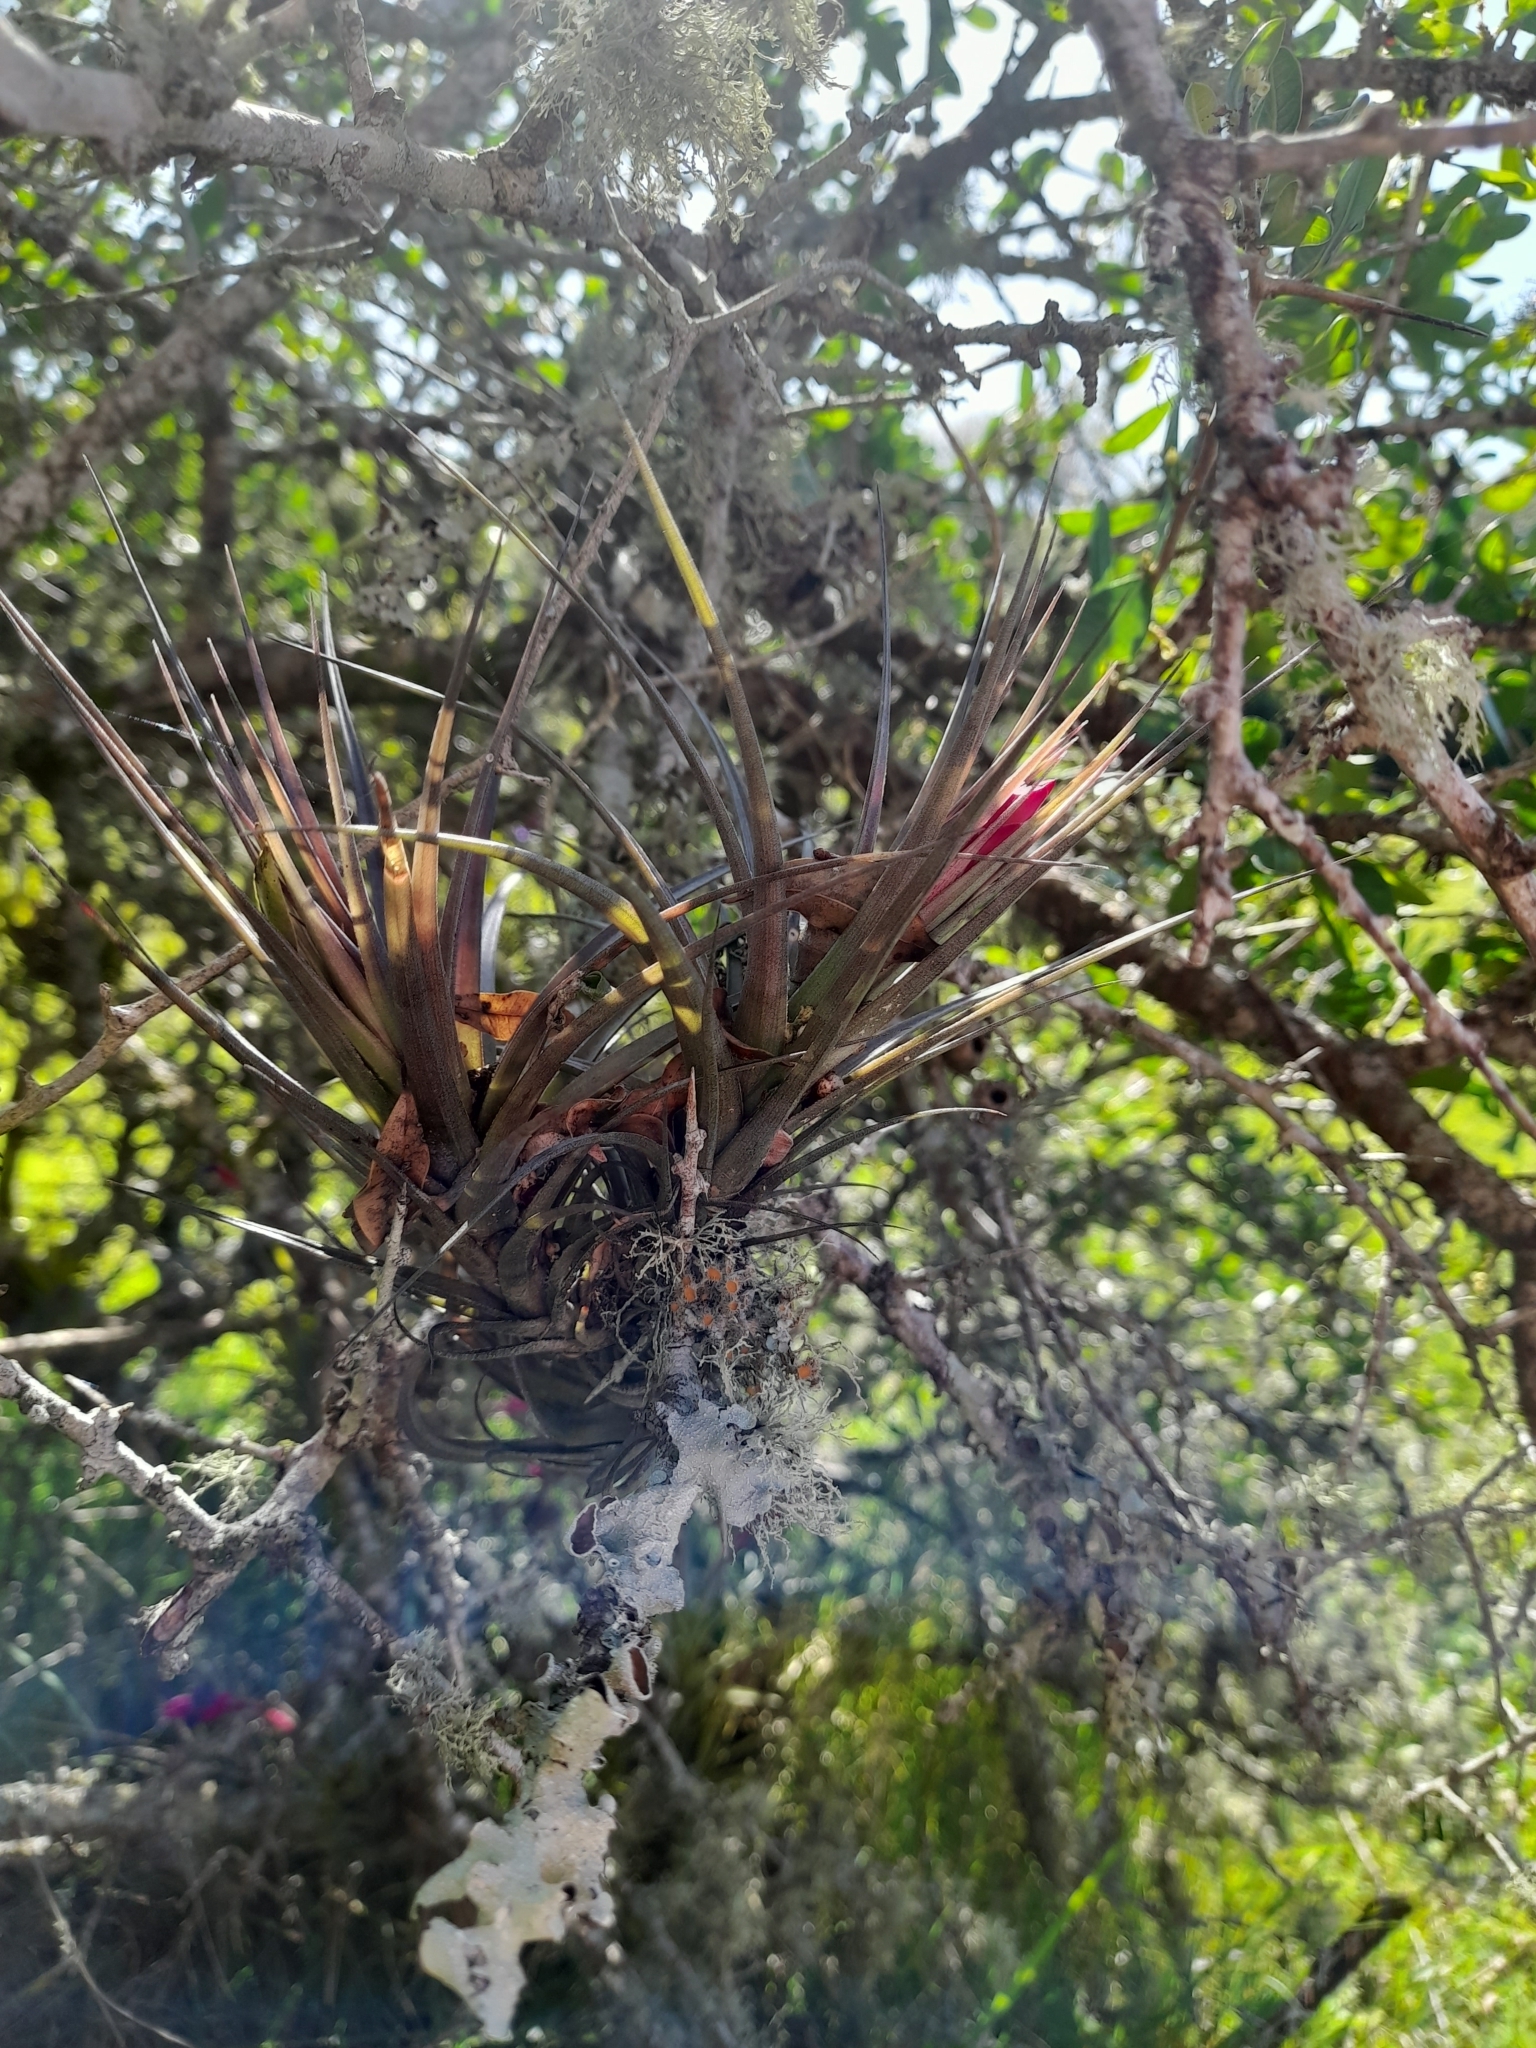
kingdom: Plantae
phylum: Tracheophyta
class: Liliopsida
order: Poales
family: Bromeliaceae
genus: Tillandsia
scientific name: Tillandsia aeranthos
